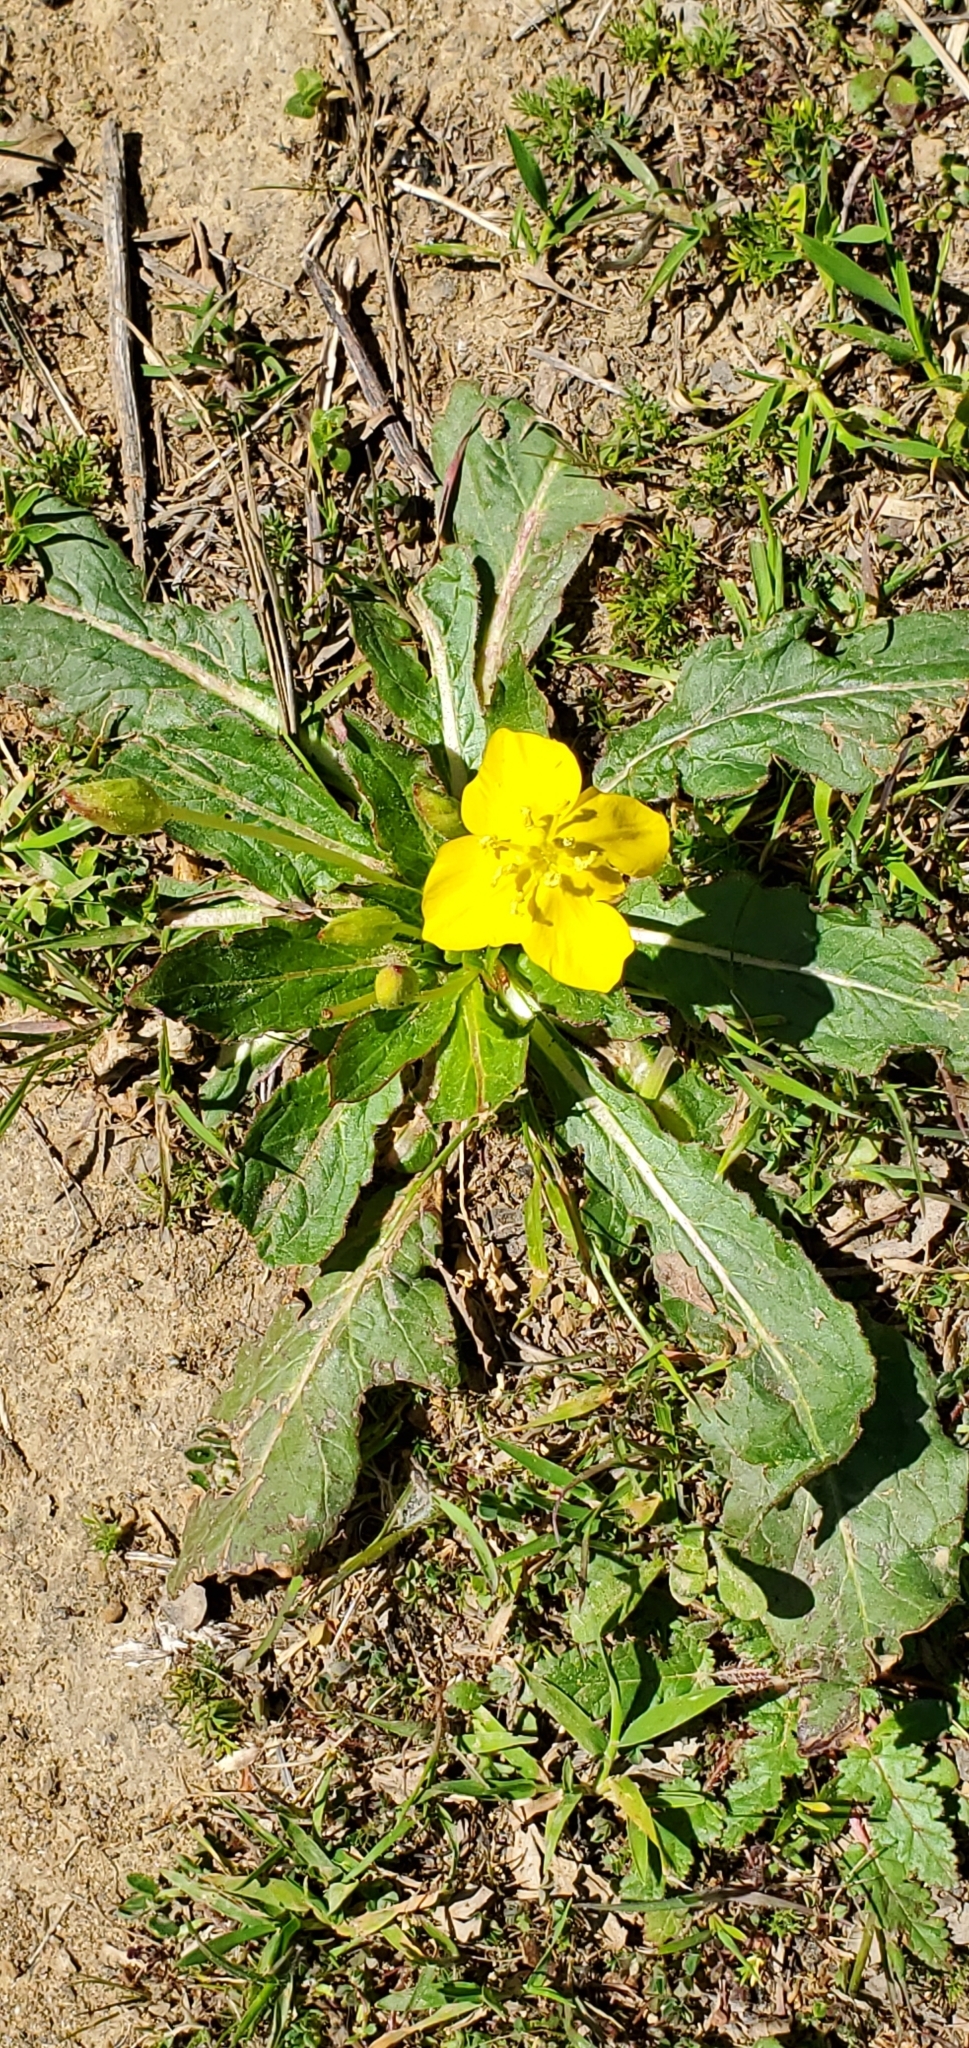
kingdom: Plantae
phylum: Tracheophyta
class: Magnoliopsida
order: Myrtales
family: Onagraceae
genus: Taraxia
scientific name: Taraxia ovata
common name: Goldeneggs
